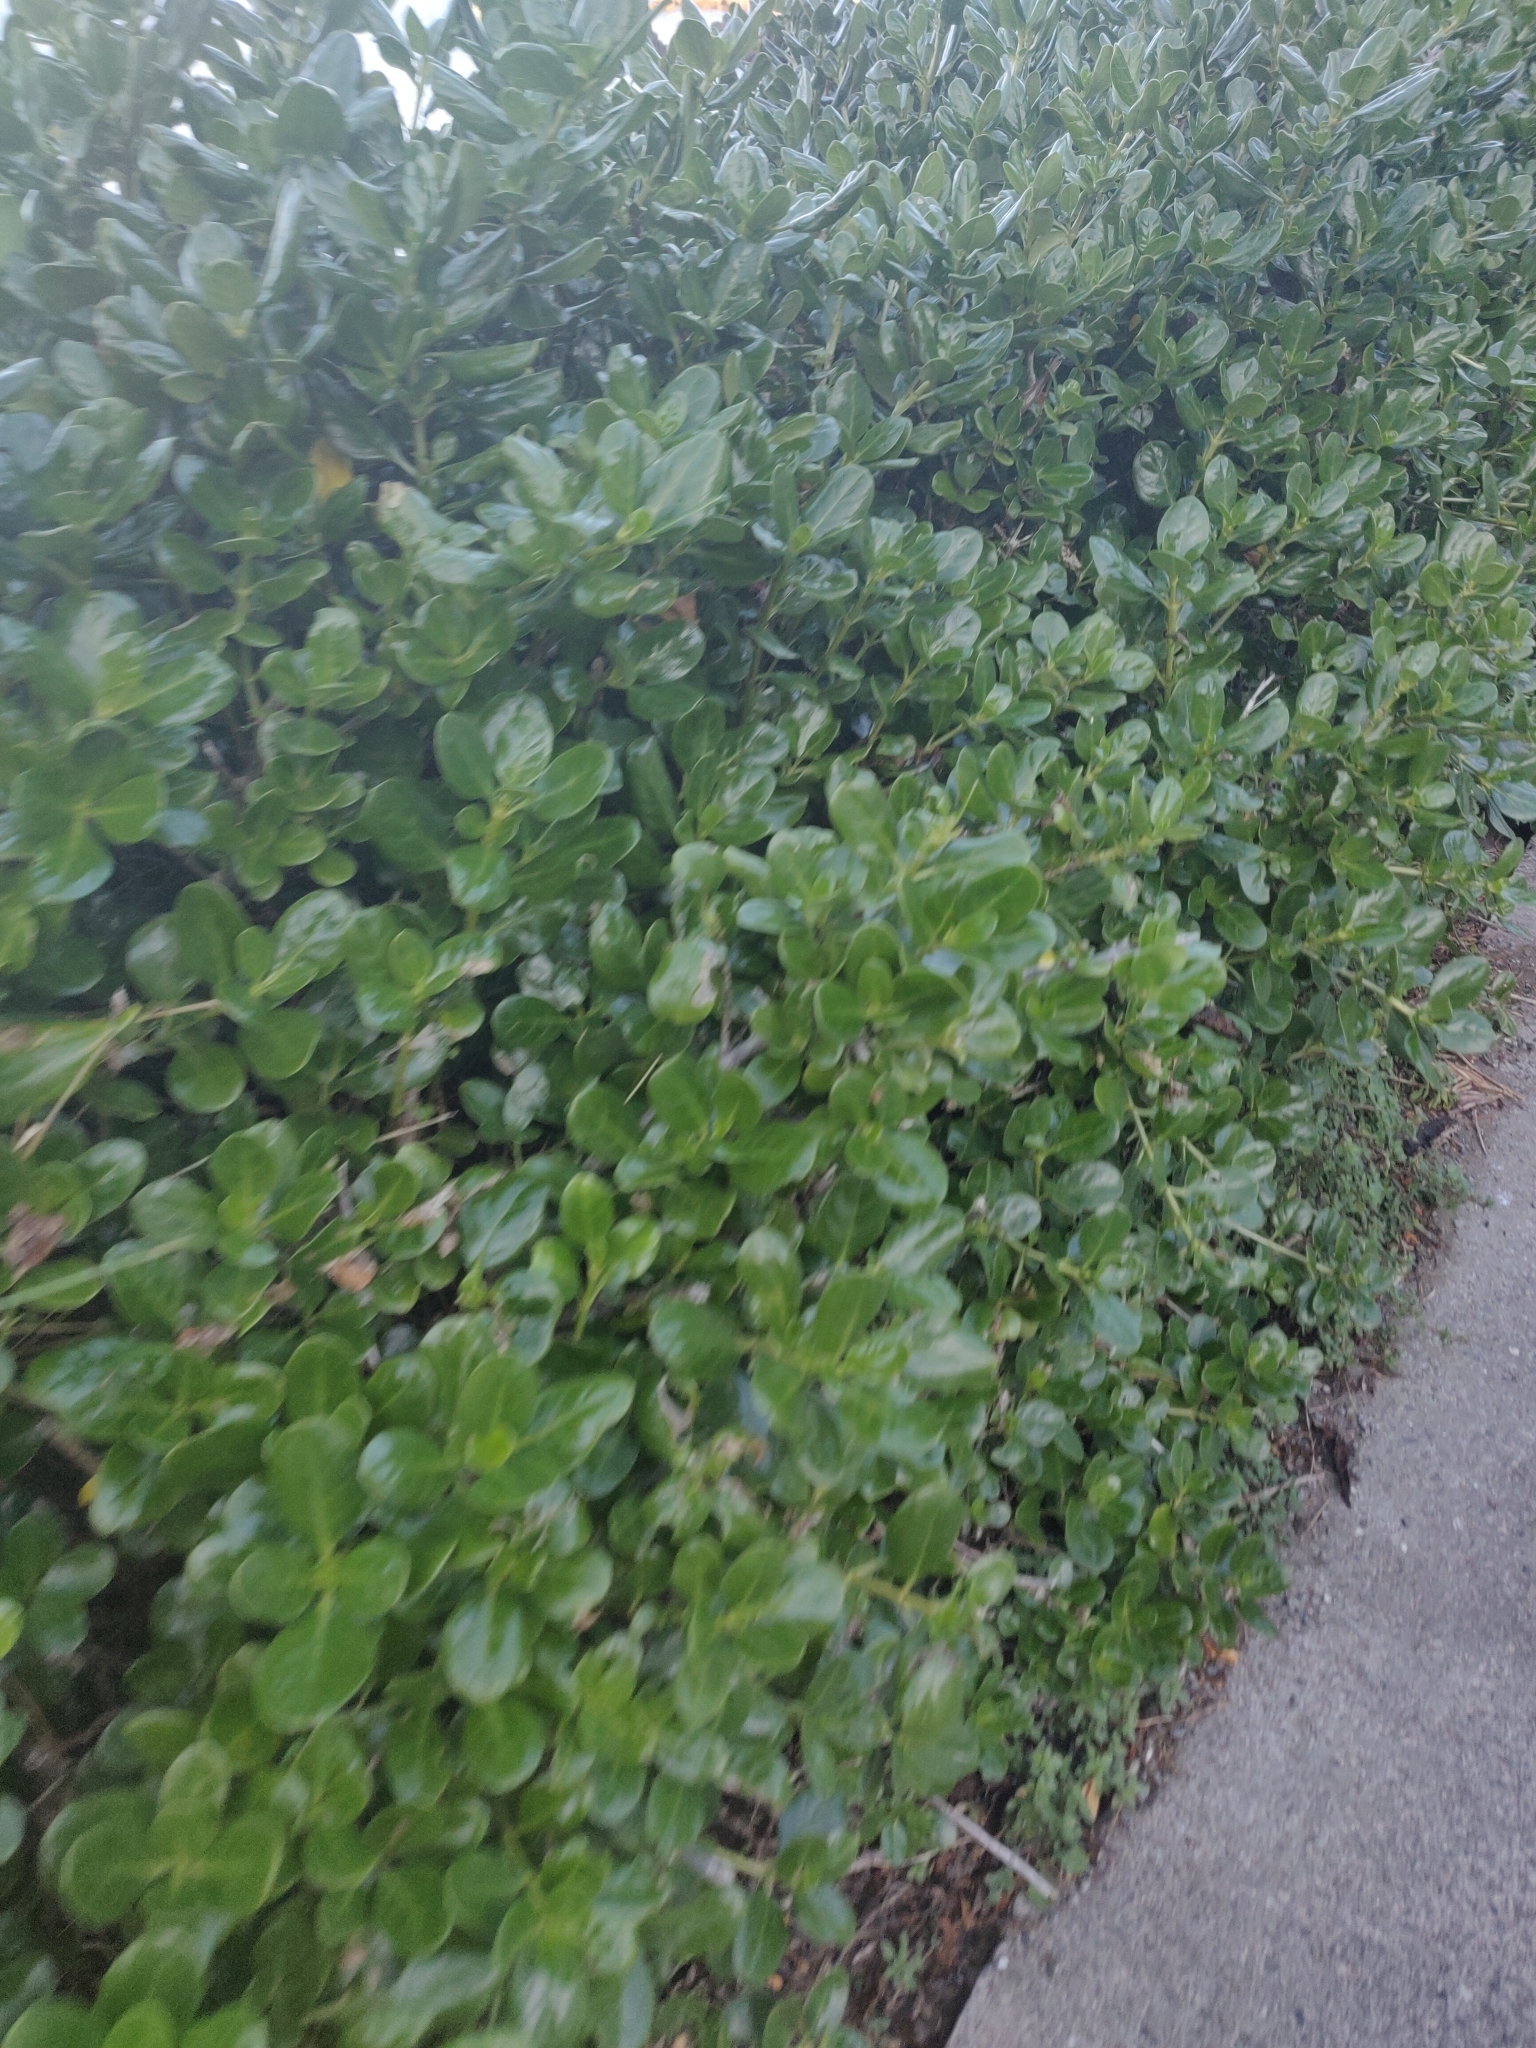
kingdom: Plantae
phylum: Tracheophyta
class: Magnoliopsida
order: Gentianales
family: Rubiaceae
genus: Coprosma
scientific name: Coprosma repens
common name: Tree bedstraw
